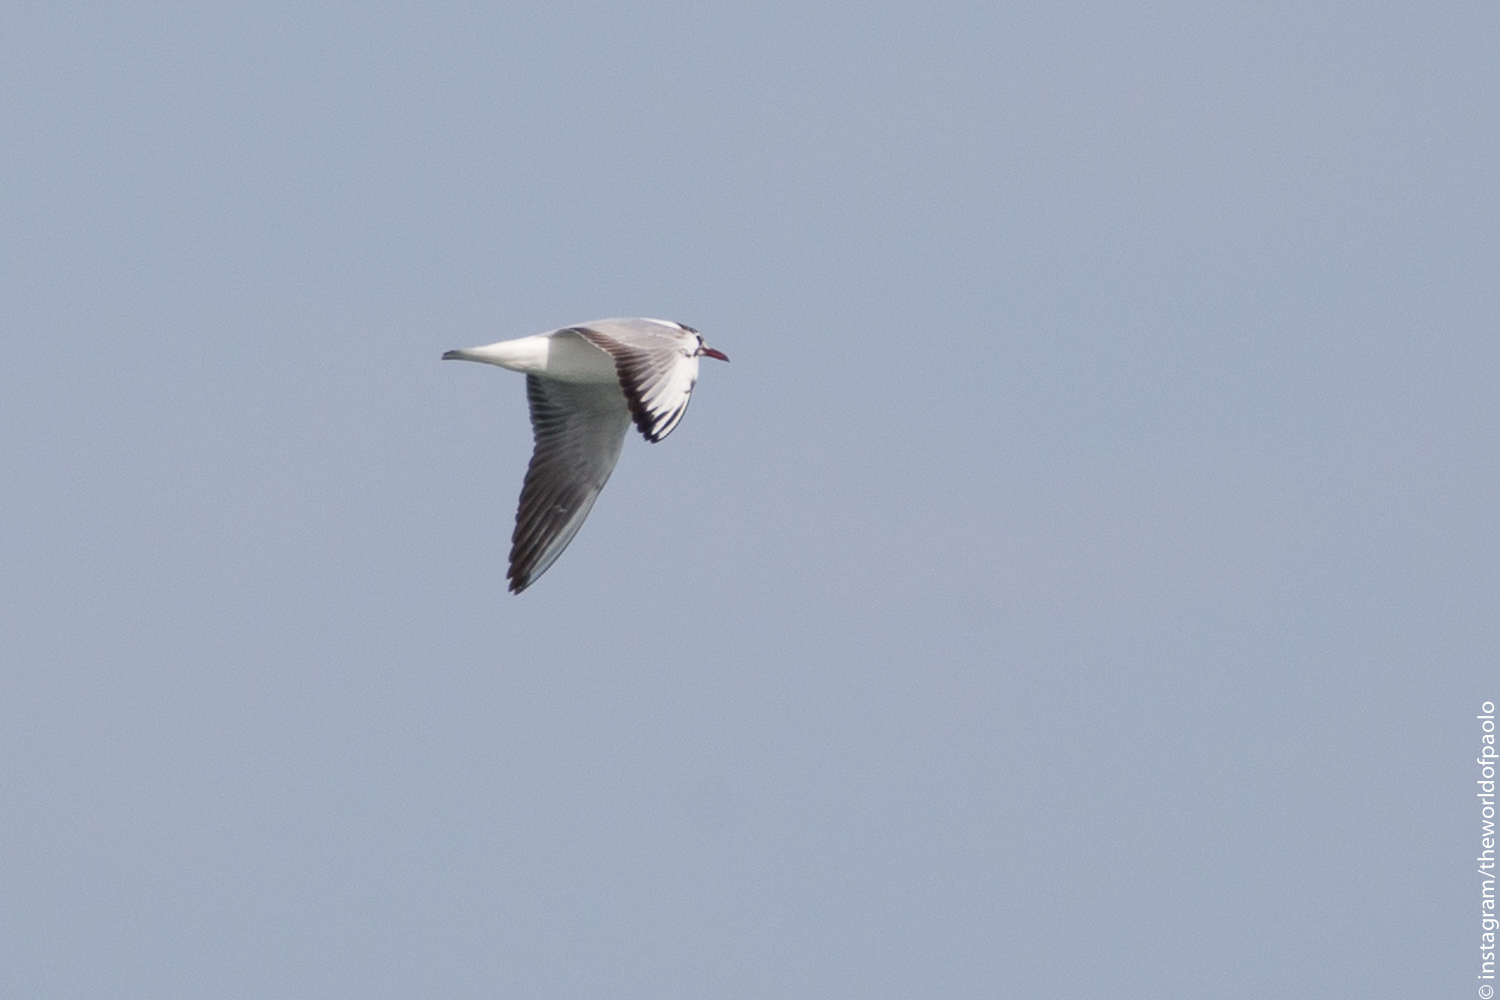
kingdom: Animalia
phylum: Chordata
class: Aves
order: Charadriiformes
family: Laridae
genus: Chroicocephalus
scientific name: Chroicocephalus ridibundus
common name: Black-headed gull
